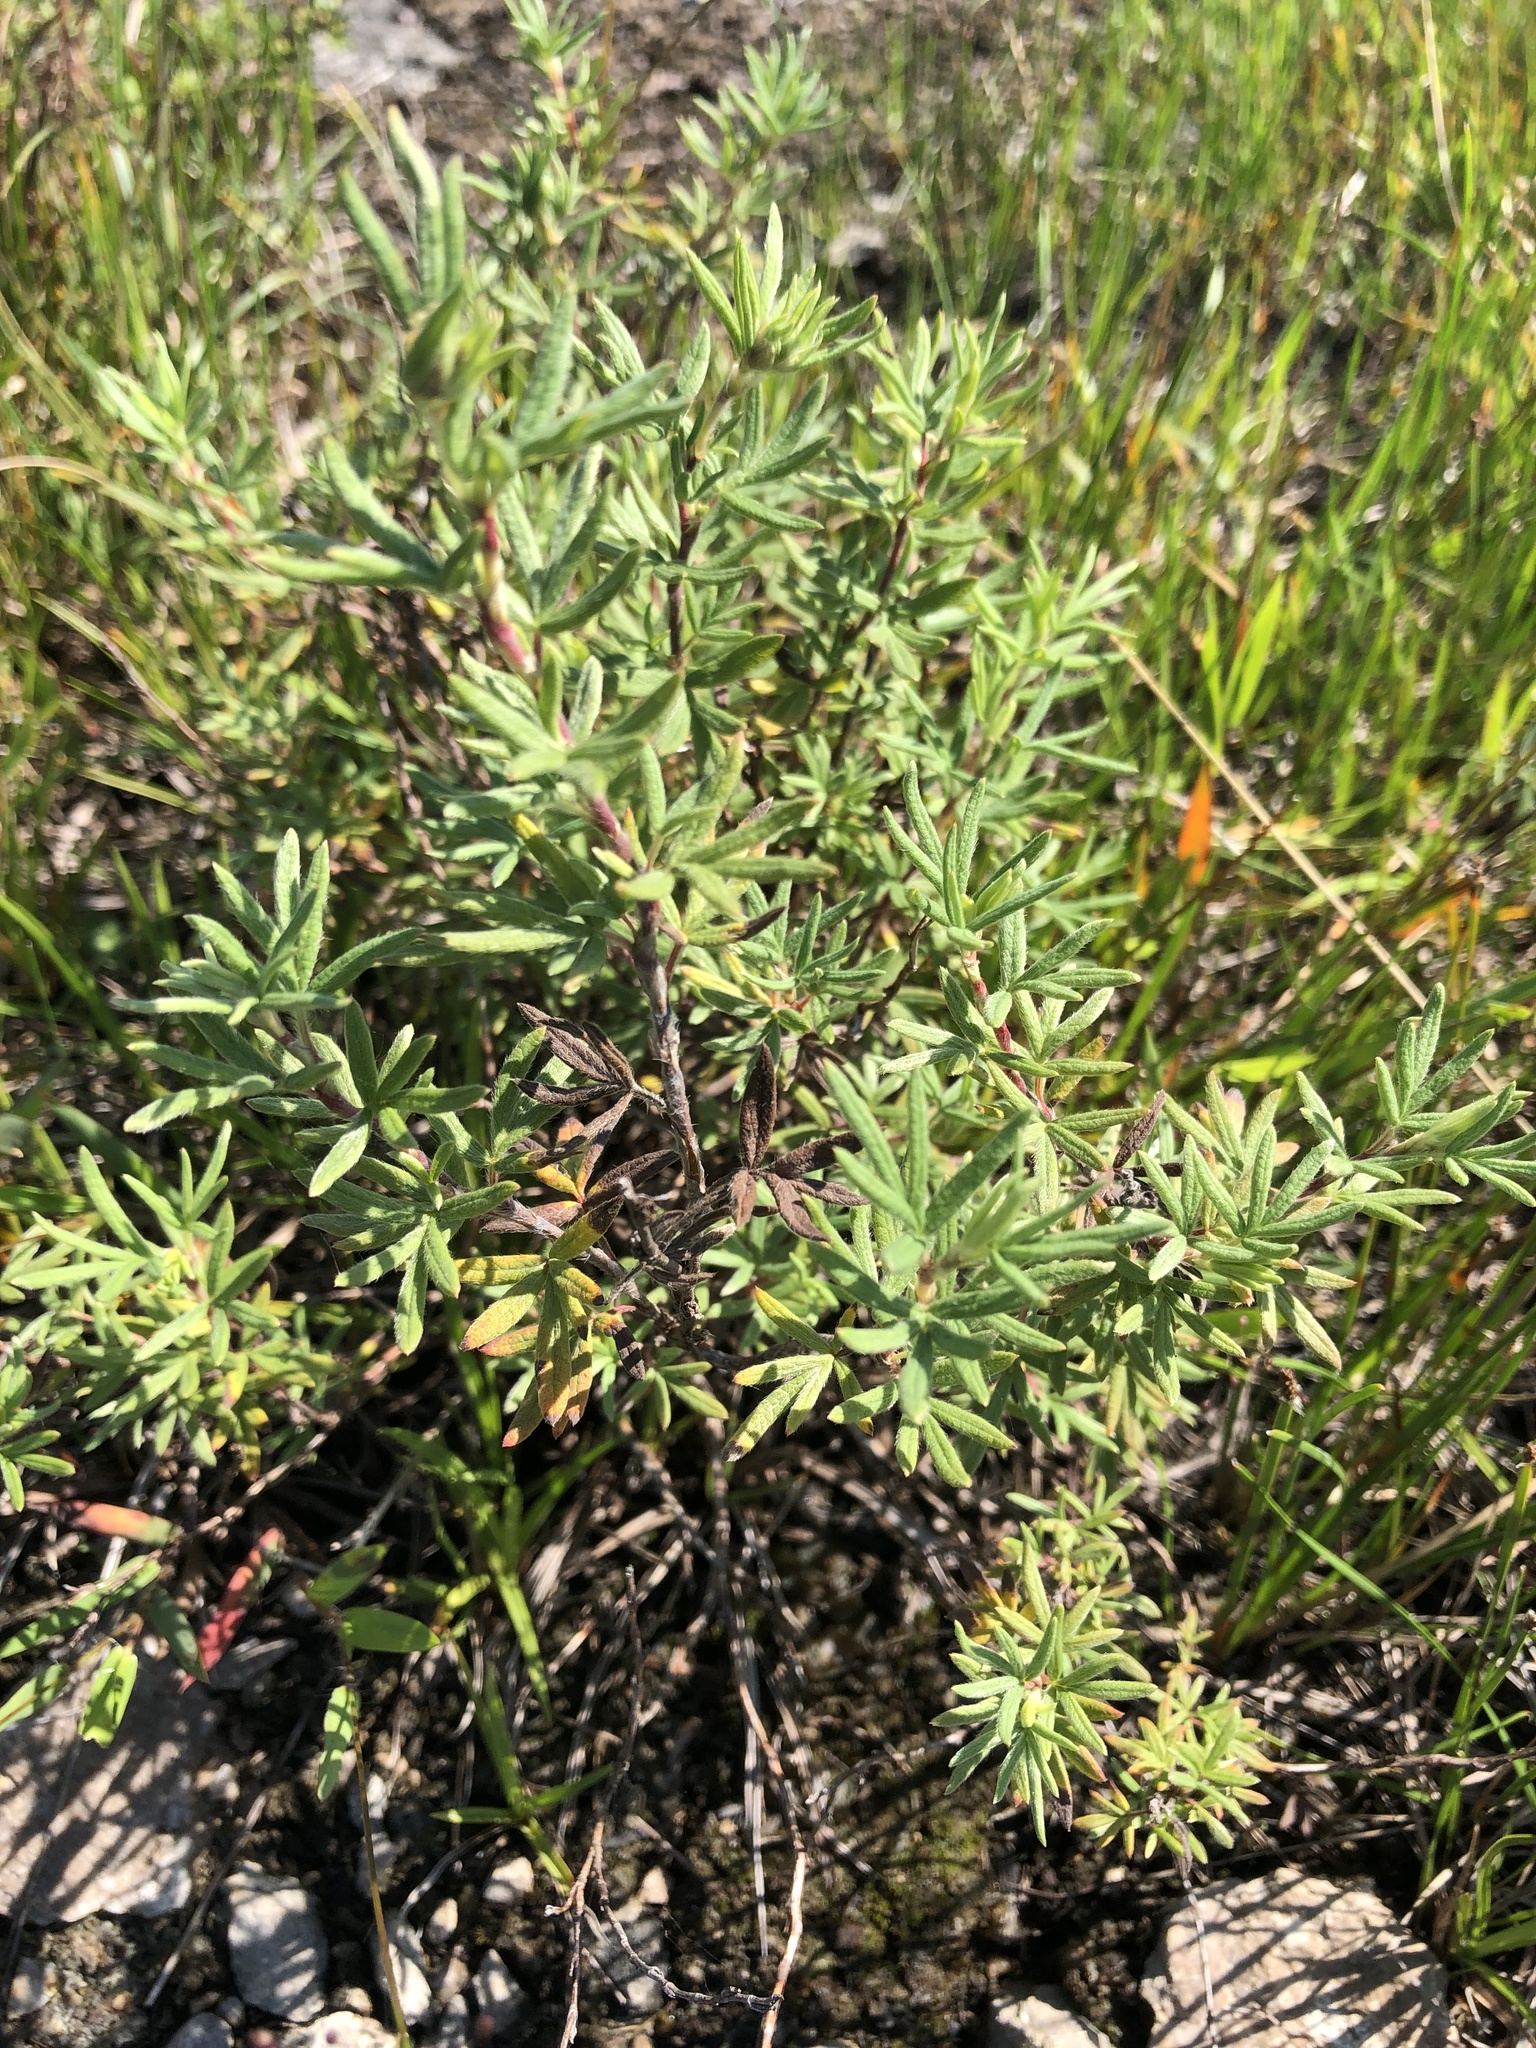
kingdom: Plantae
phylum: Tracheophyta
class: Magnoliopsida
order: Rosales
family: Rosaceae
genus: Dasiphora
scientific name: Dasiphora fruticosa
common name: Shrubby cinquefoil
